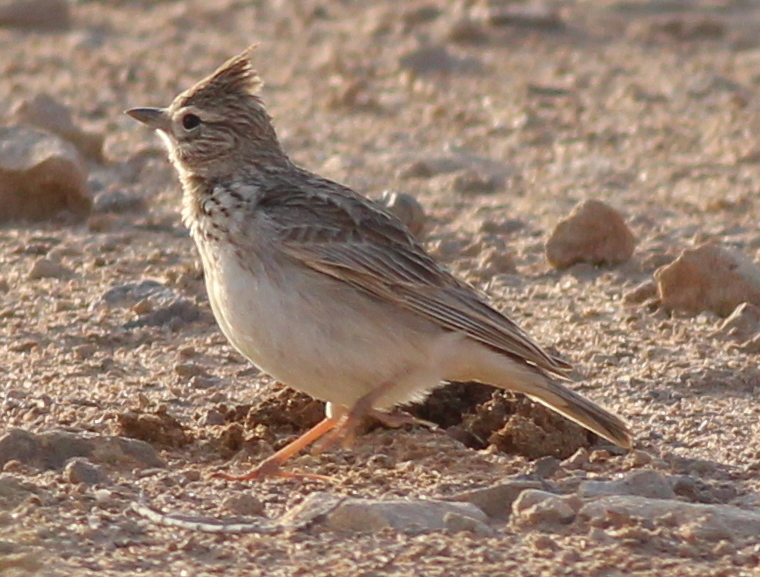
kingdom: Animalia
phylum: Chordata
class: Aves
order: Passeriformes
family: Alaudidae
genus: Galerida
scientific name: Galerida theklae
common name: Thekla lark
